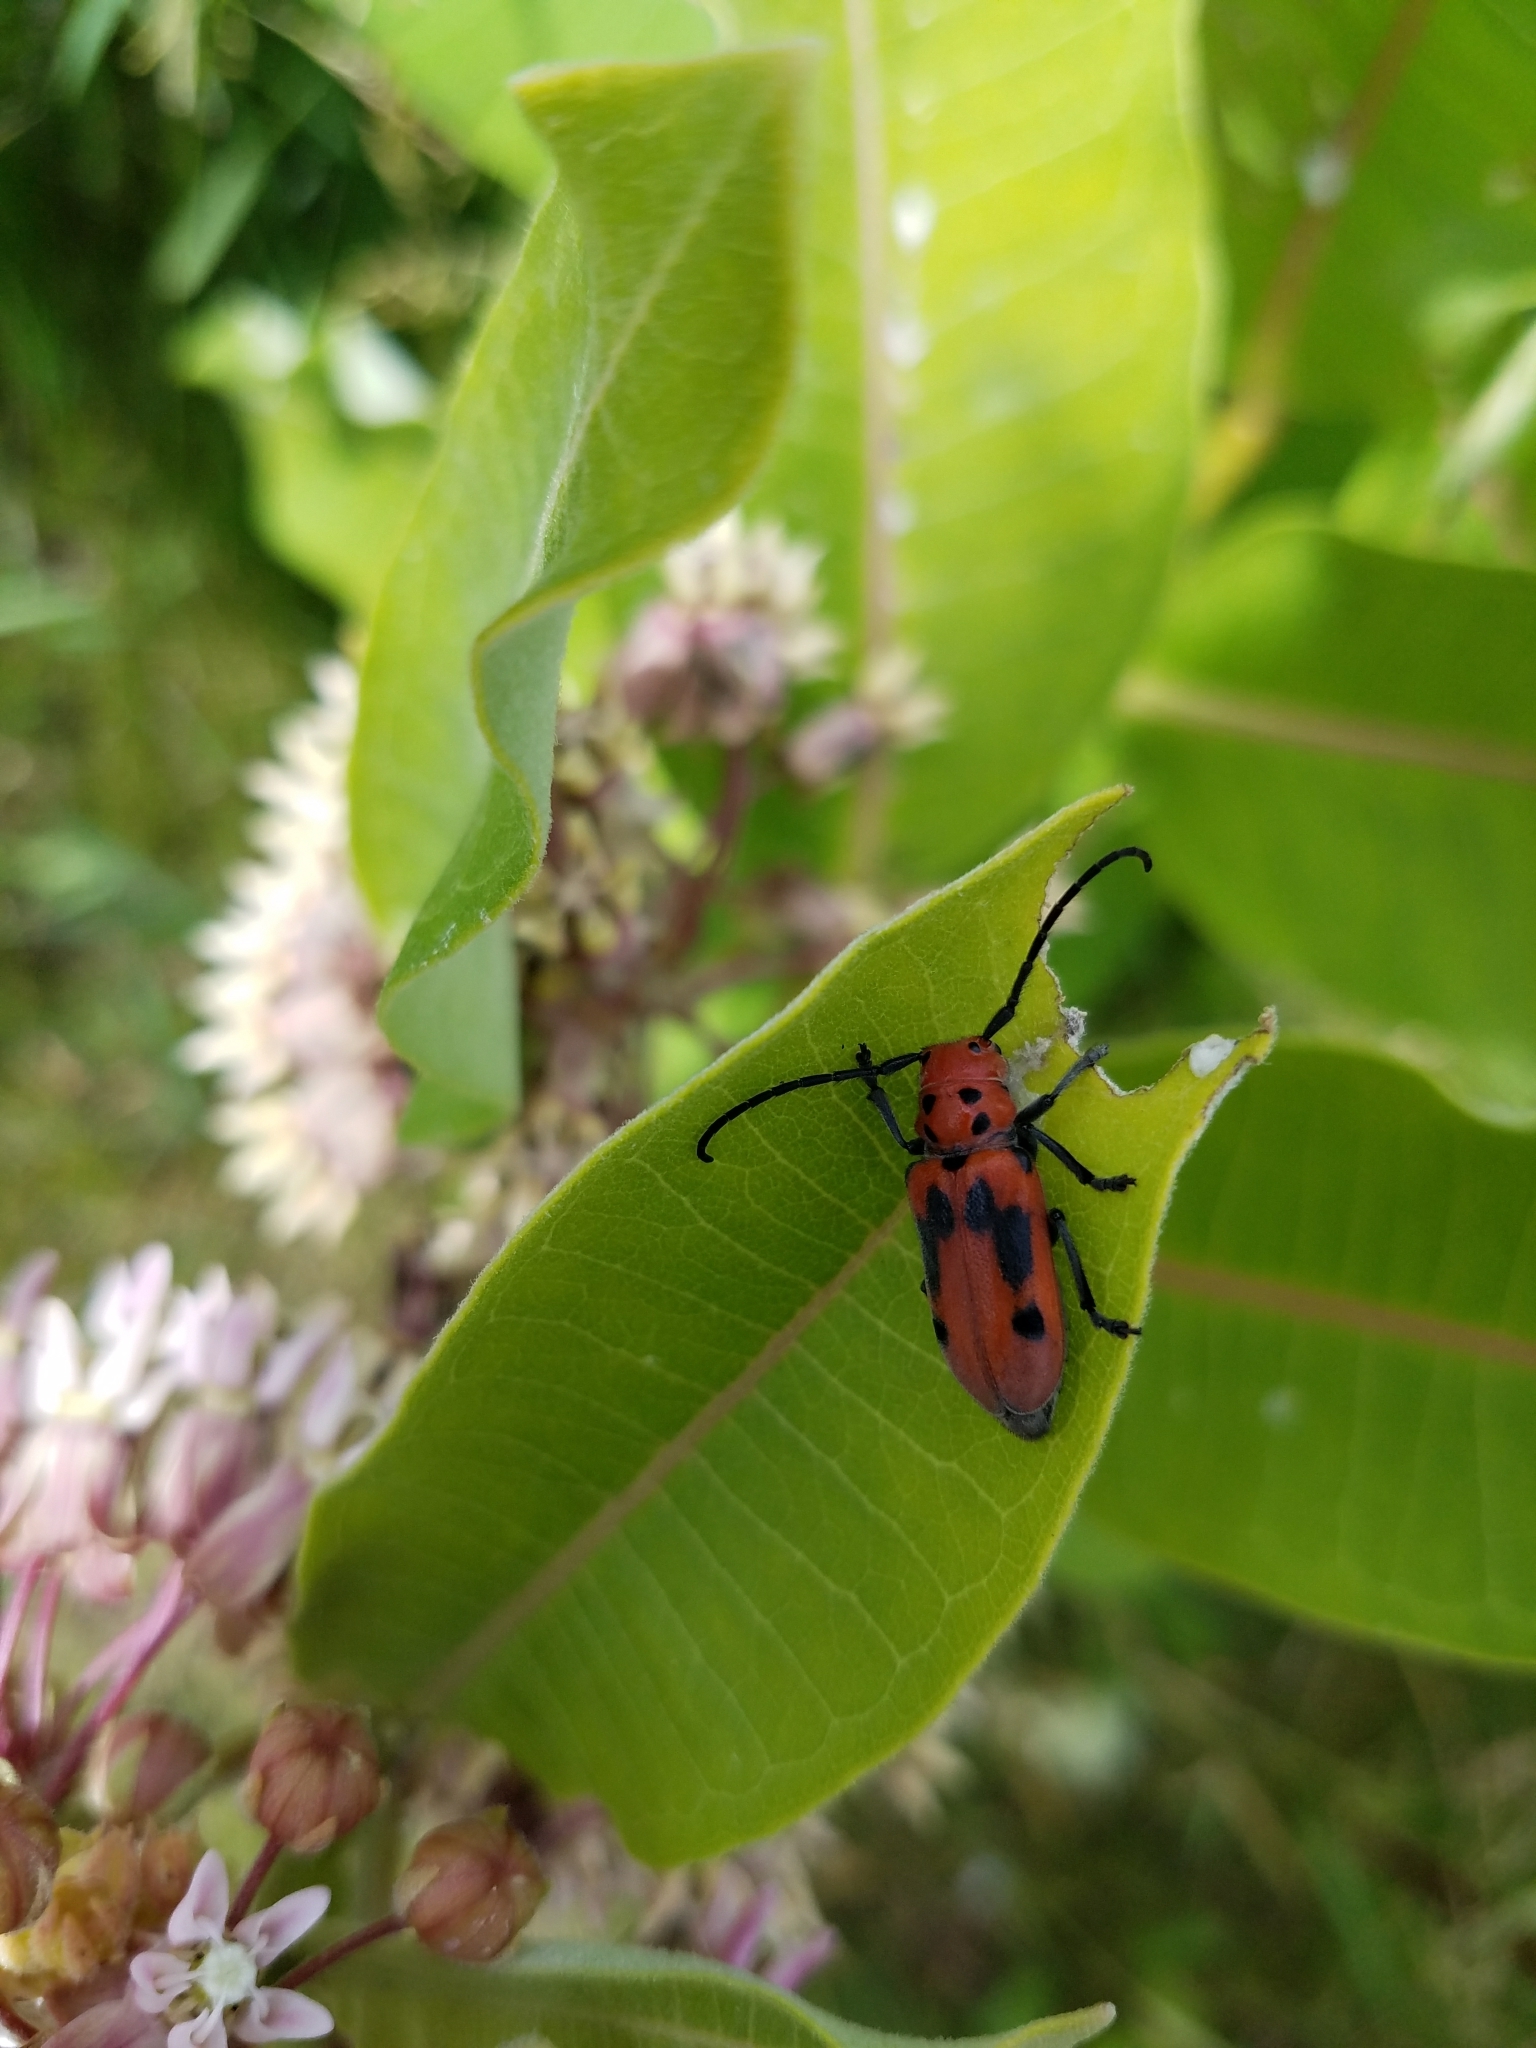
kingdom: Animalia
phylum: Arthropoda
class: Insecta
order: Coleoptera
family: Cerambycidae
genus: Tetraopes
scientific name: Tetraopes tetrophthalmus
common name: Red milkweed beetle
